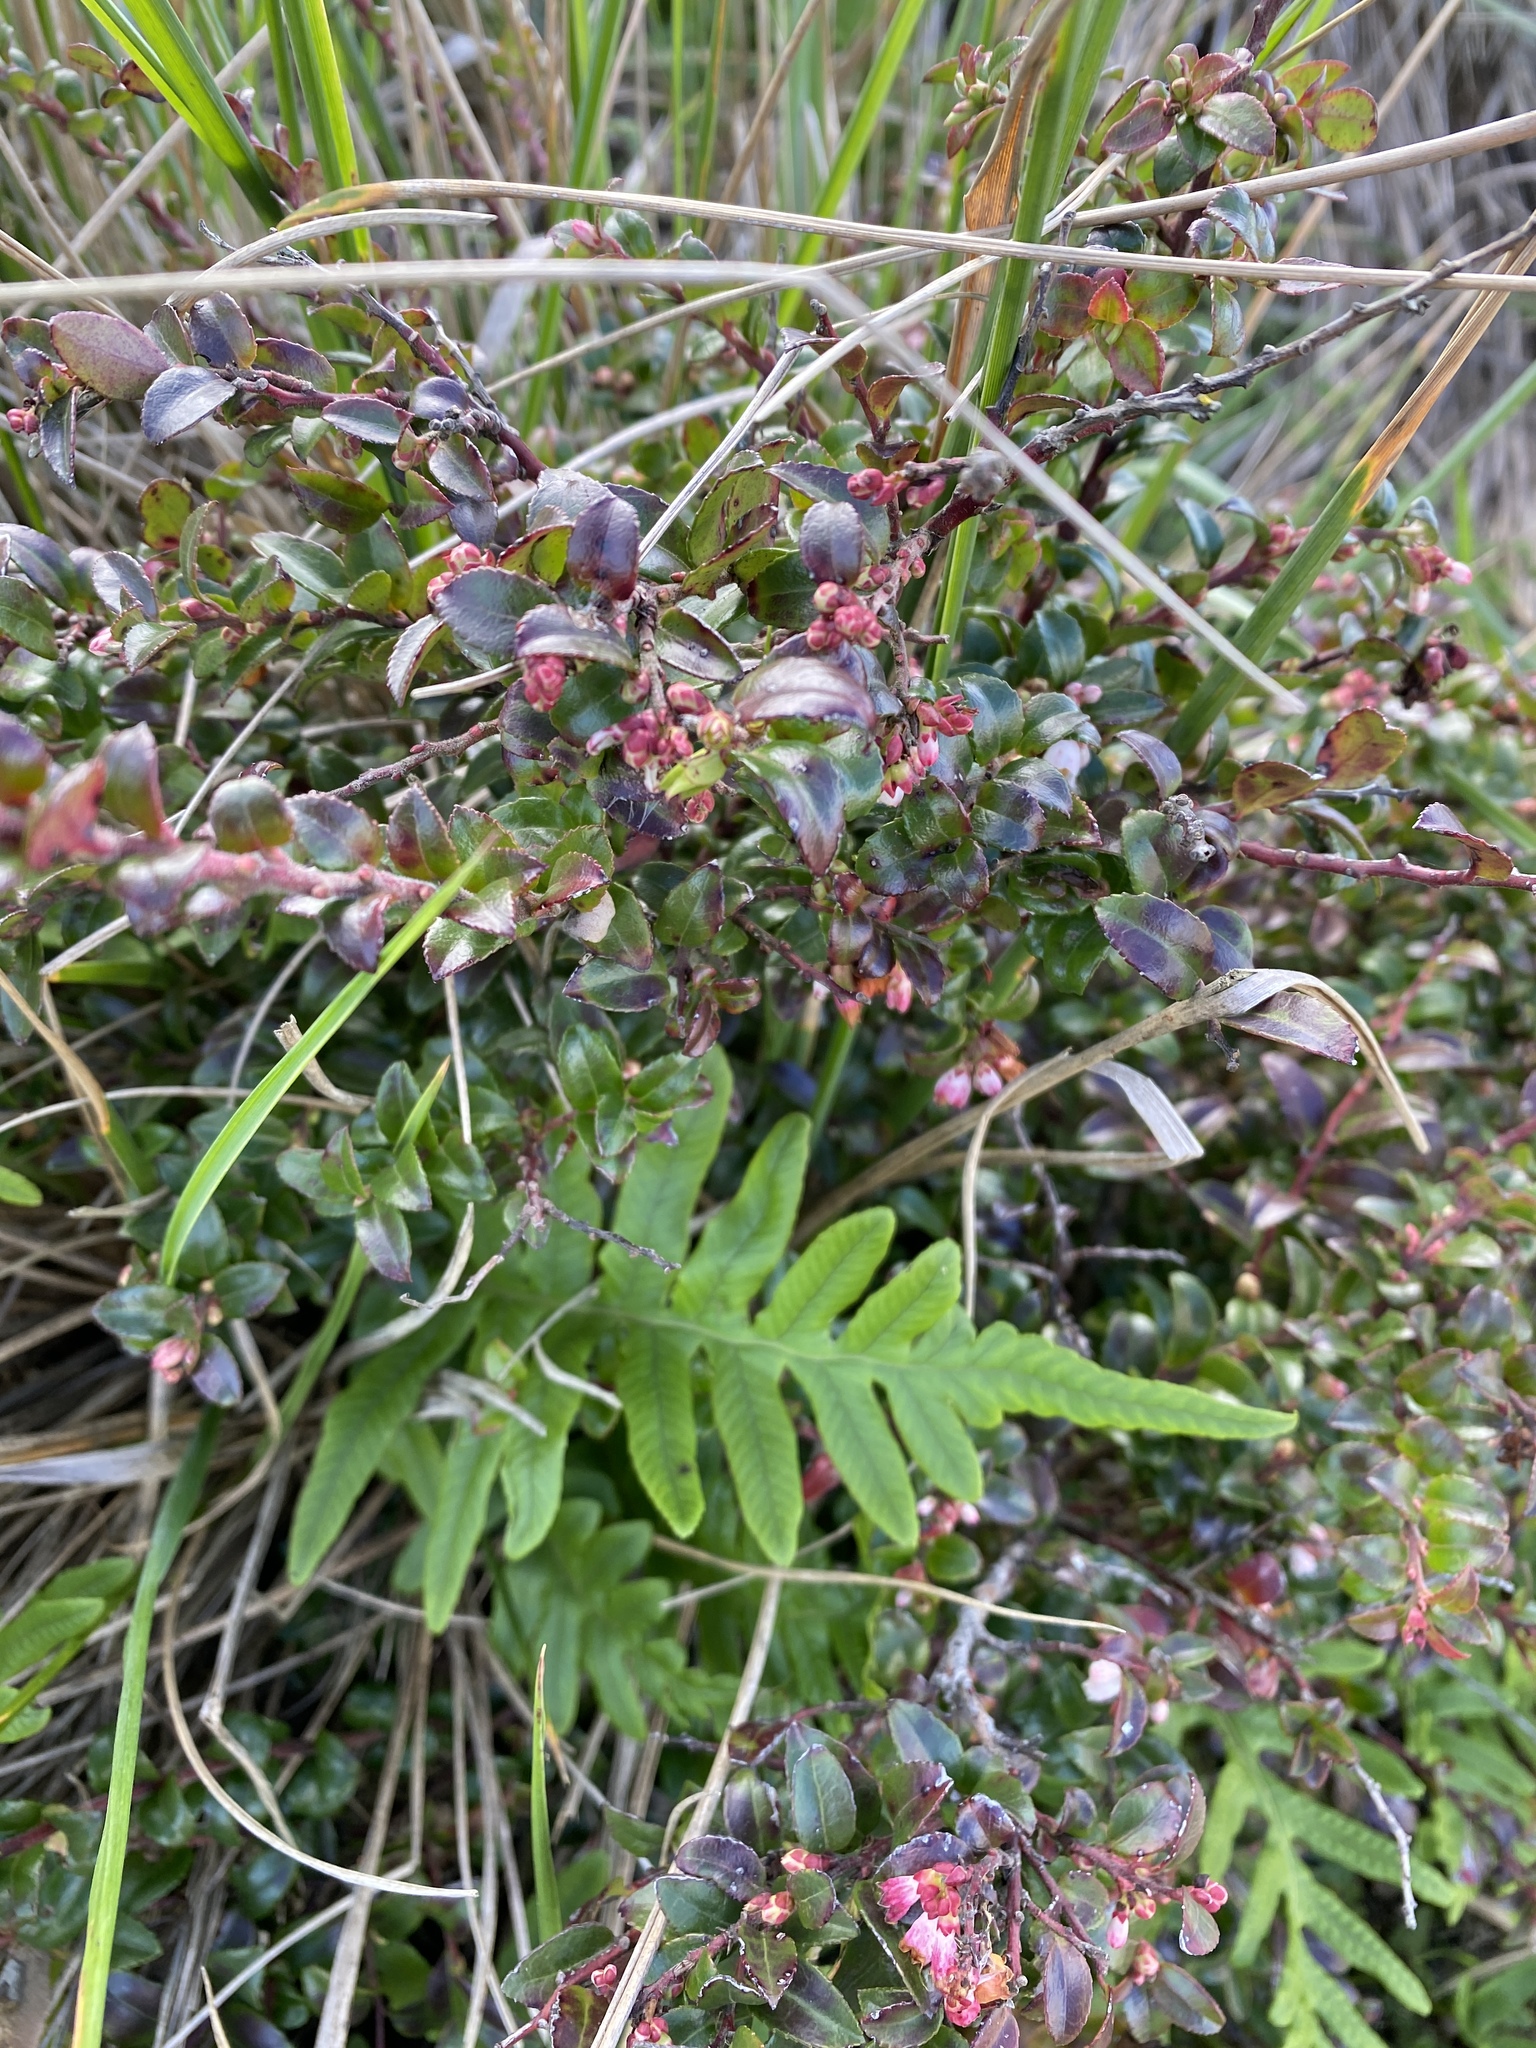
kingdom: Plantae
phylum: Tracheophyta
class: Magnoliopsida
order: Ericales
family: Ericaceae
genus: Vaccinium
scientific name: Vaccinium ovatum
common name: California-huckleberry
